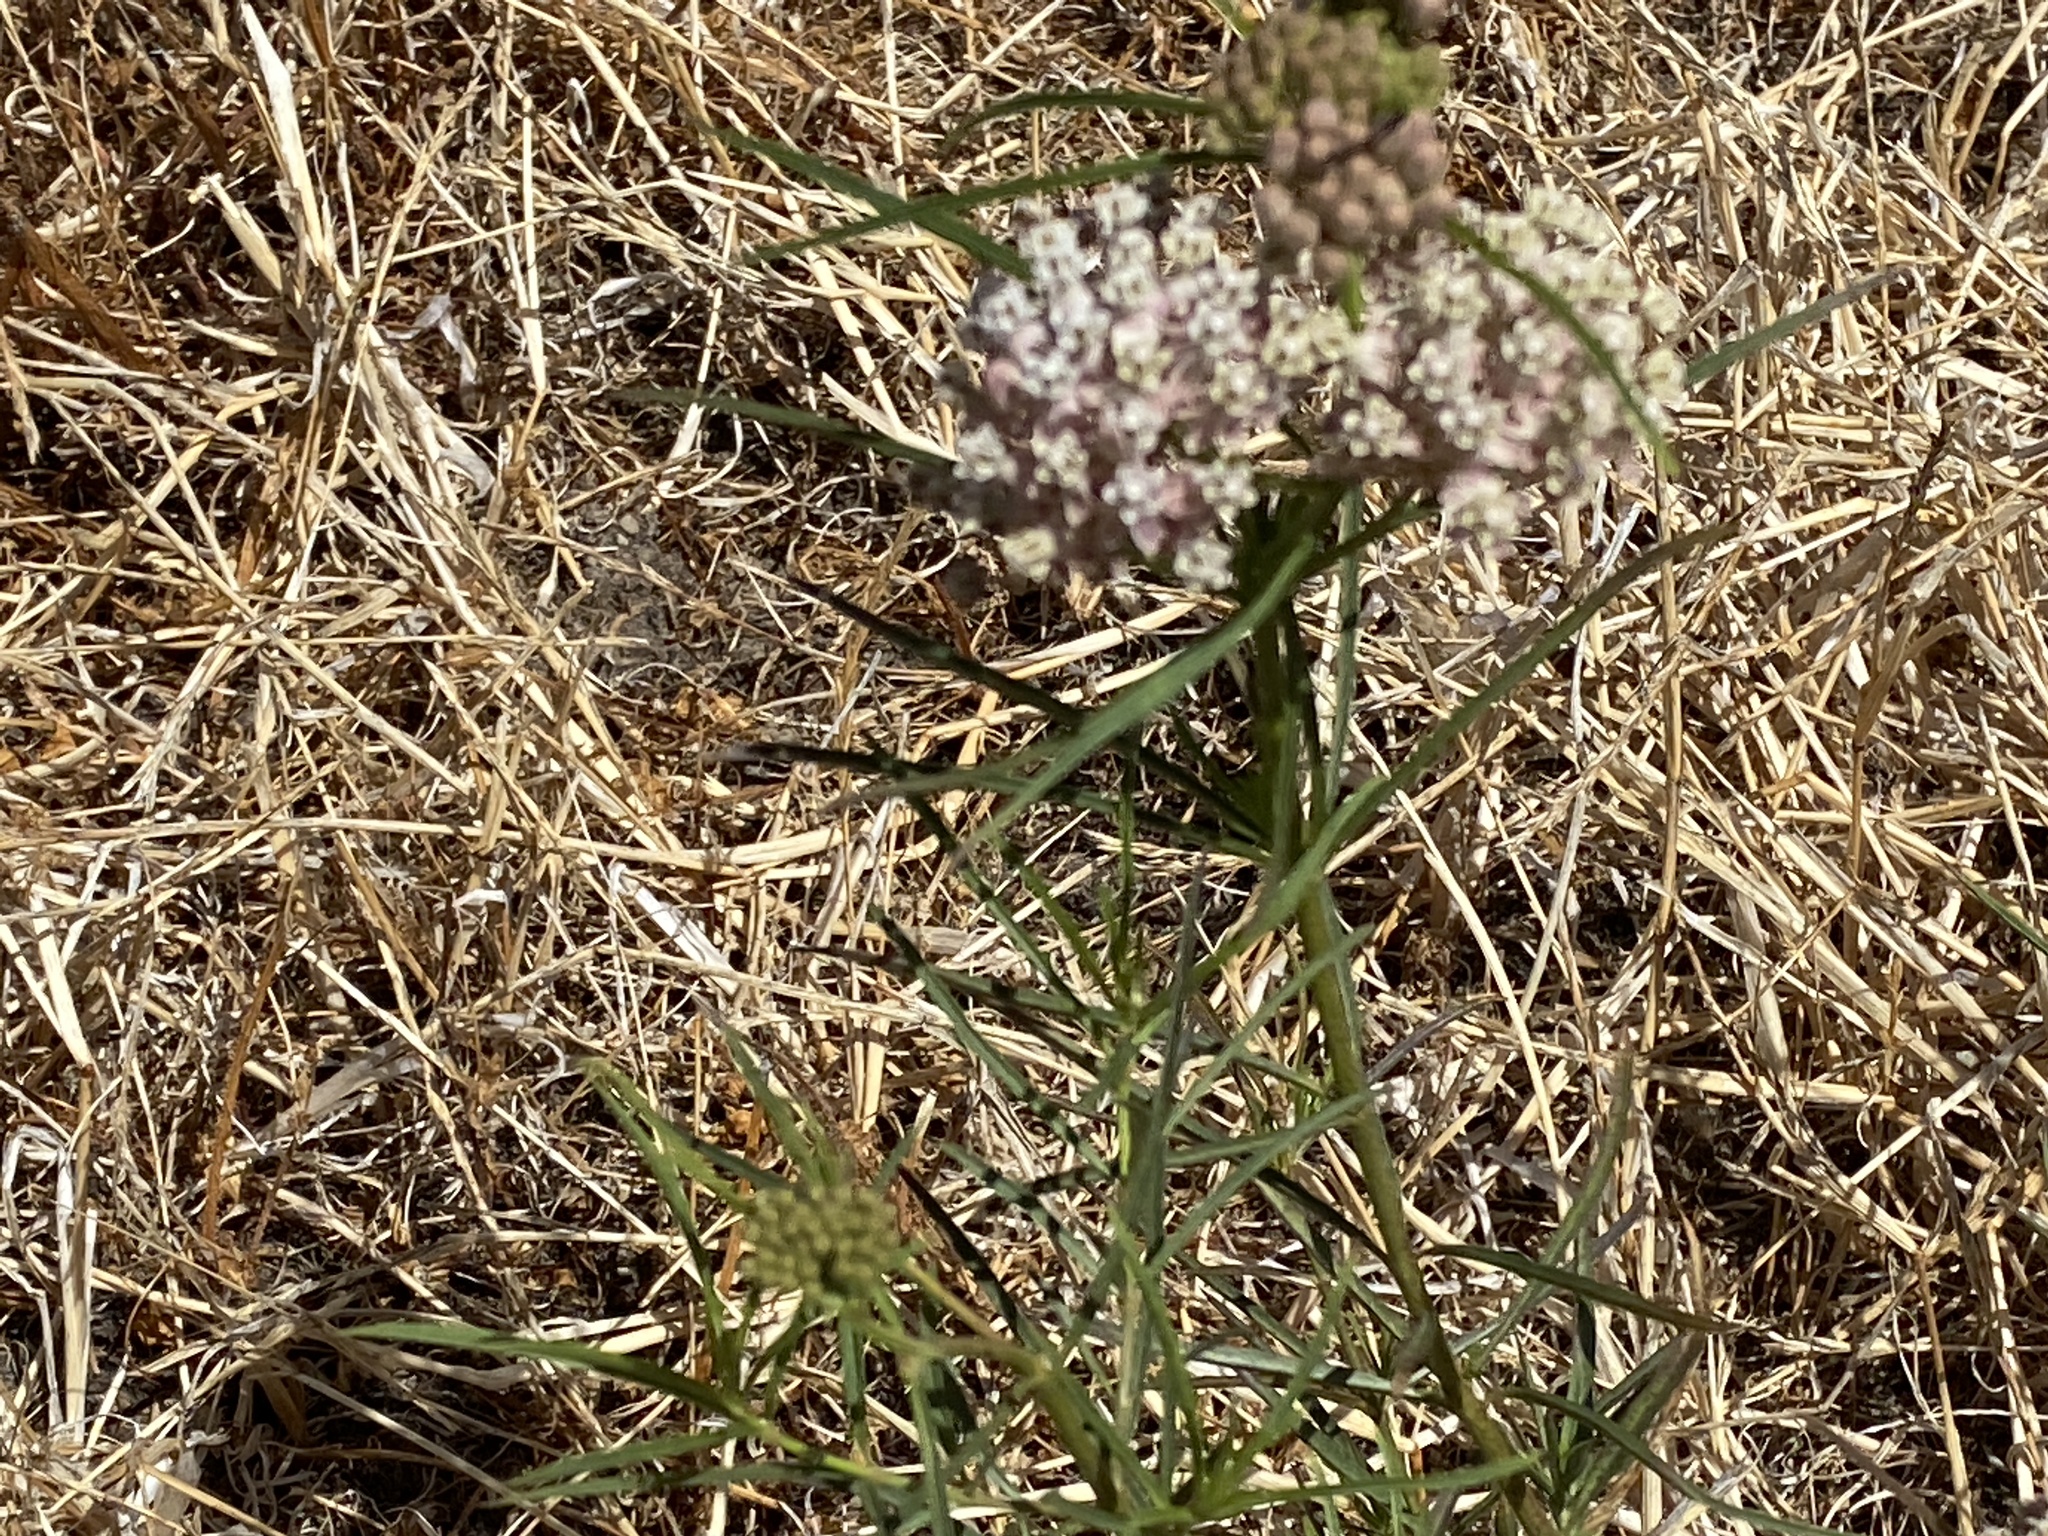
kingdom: Plantae
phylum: Tracheophyta
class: Magnoliopsida
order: Gentianales
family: Apocynaceae
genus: Asclepias
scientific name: Asclepias fascicularis
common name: Mexican milkweed
